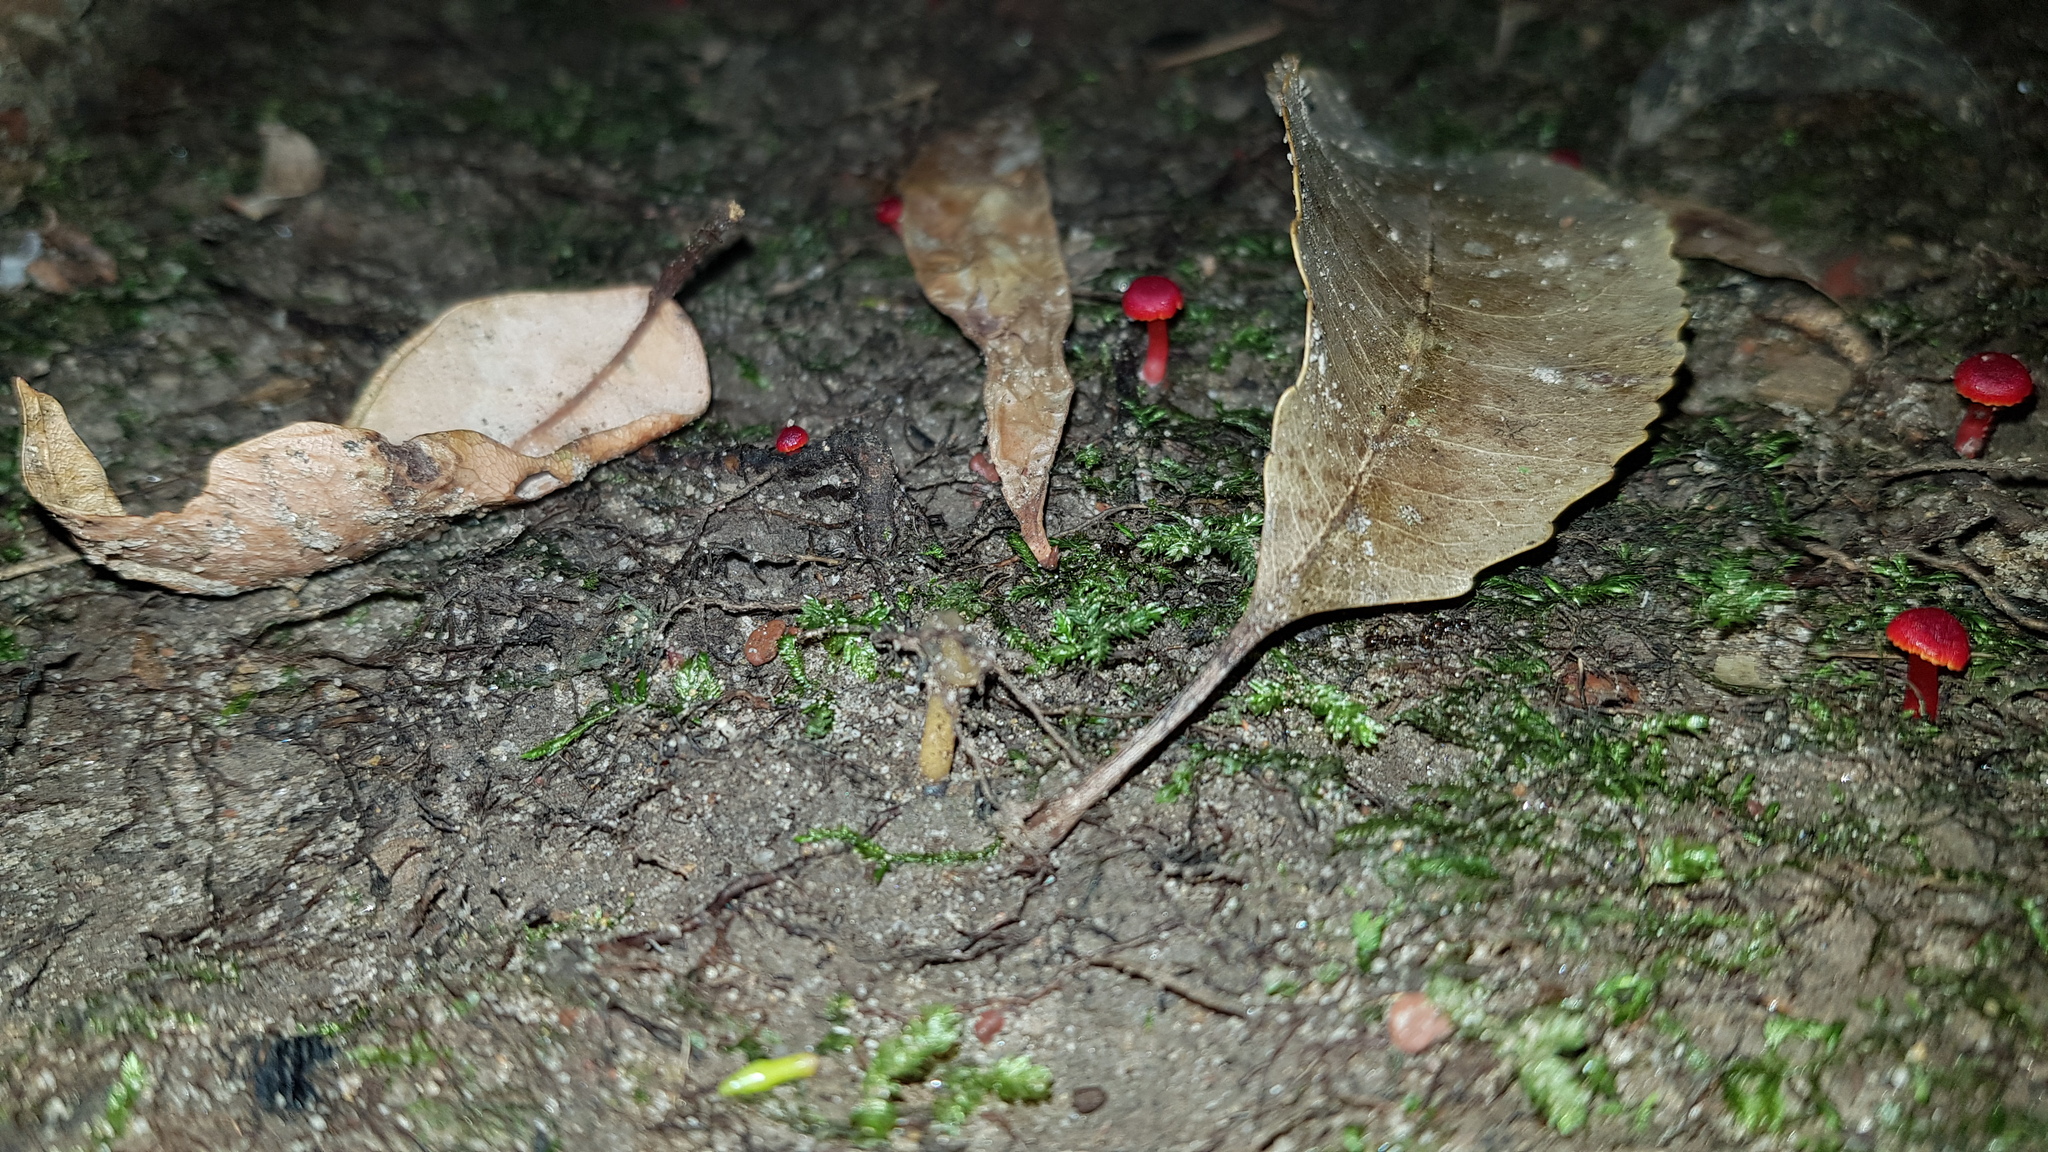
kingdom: Fungi
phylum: Ascomycota
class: Leotiomycetes
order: Leotiales
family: Leotiaceae
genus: Leotia
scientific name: Leotia lubrica
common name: Jellybaby
